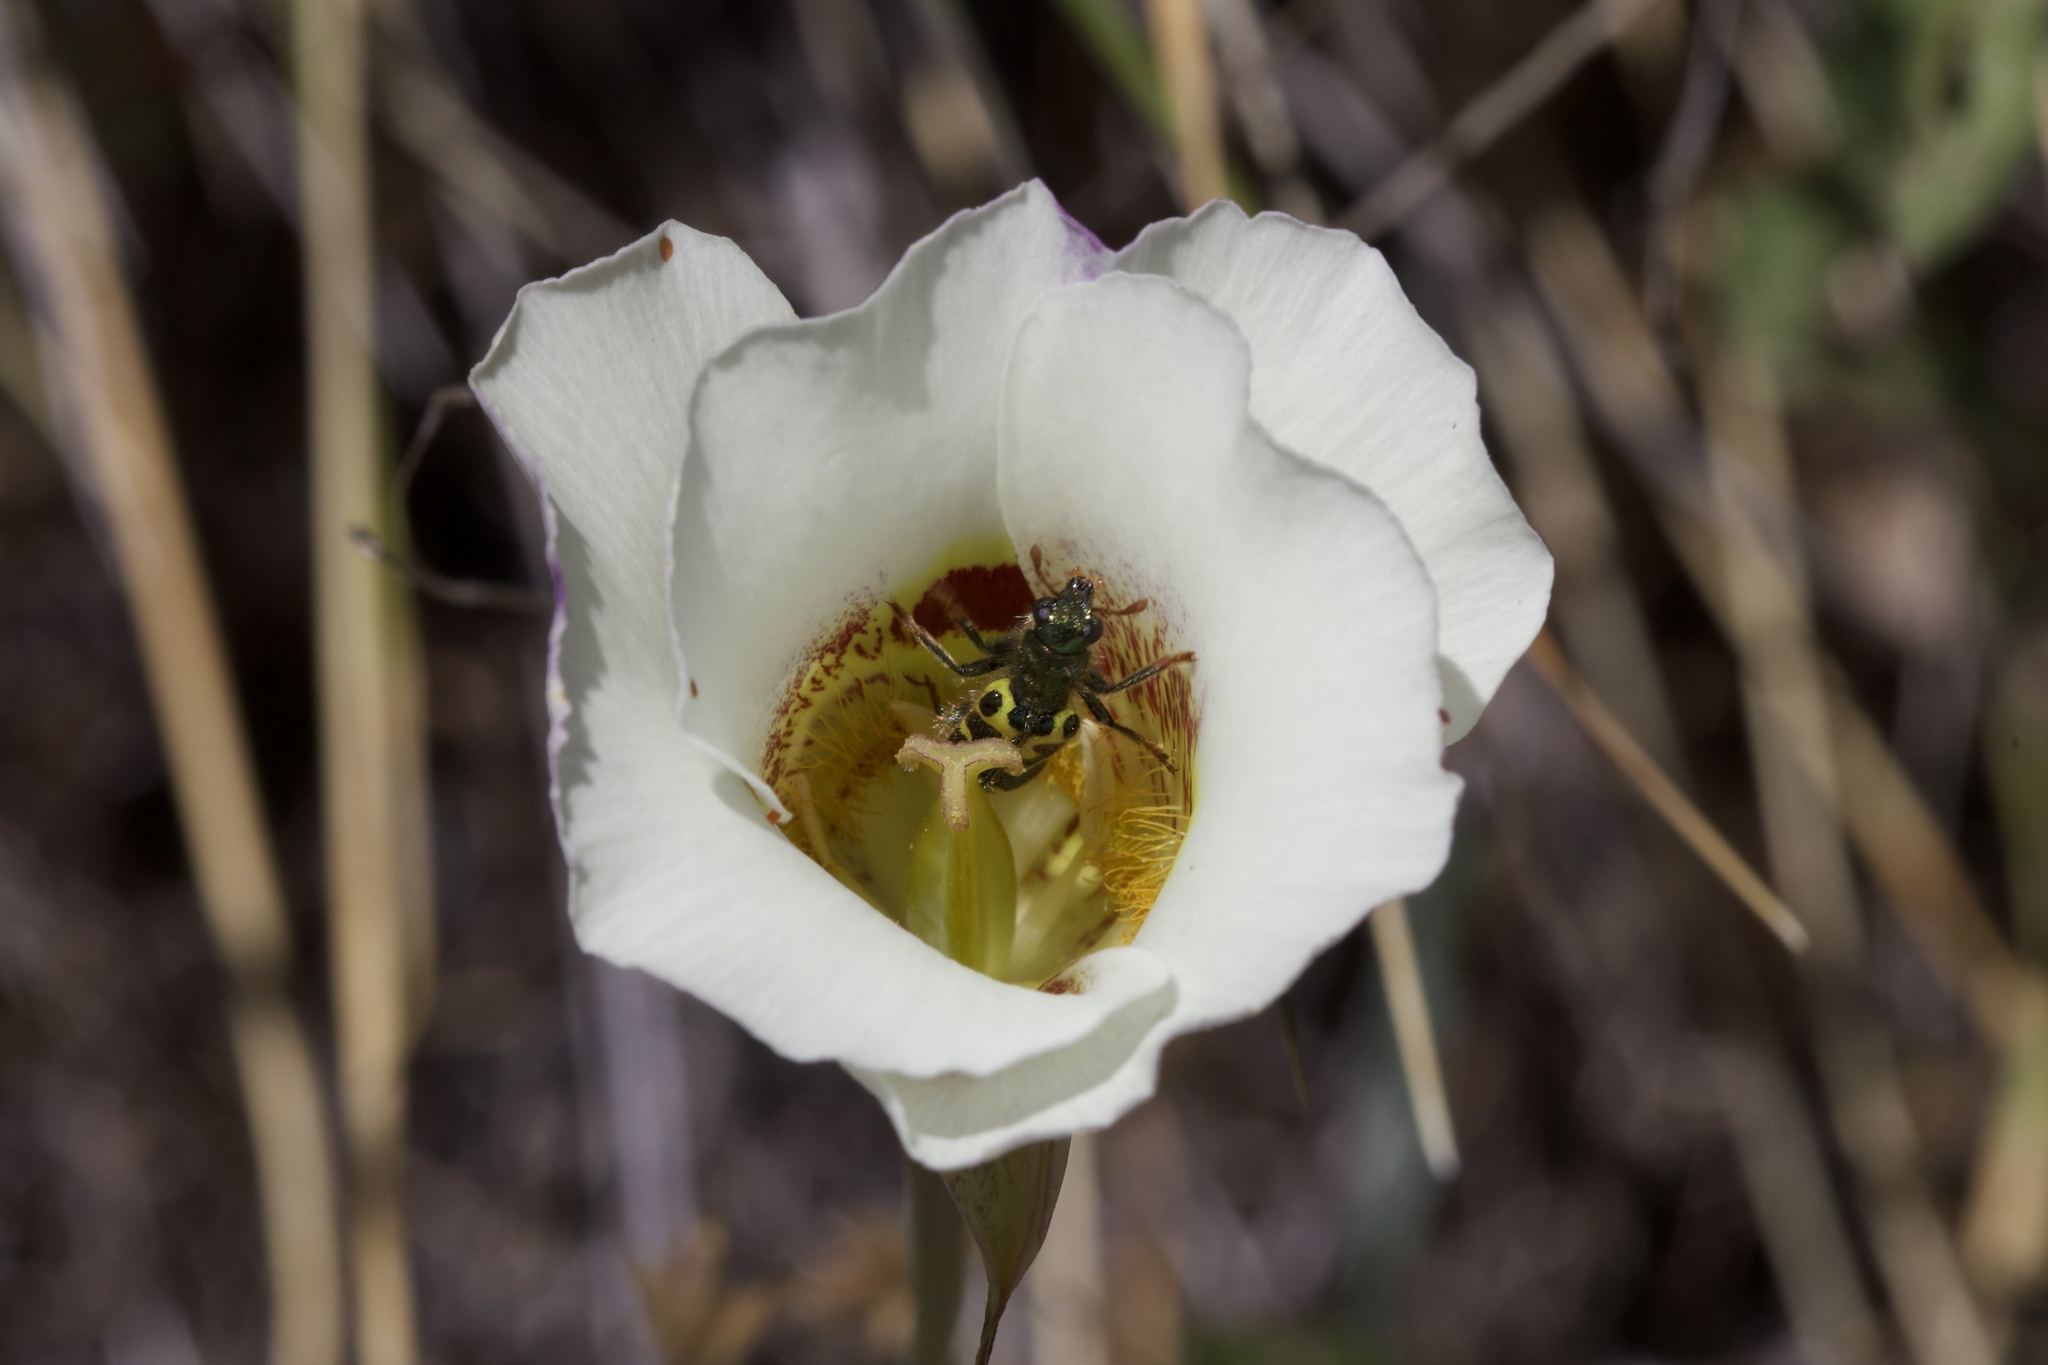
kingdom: Animalia
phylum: Arthropoda
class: Insecta
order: Coleoptera
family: Cleridae
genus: Trichodes
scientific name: Trichodes ornatus
